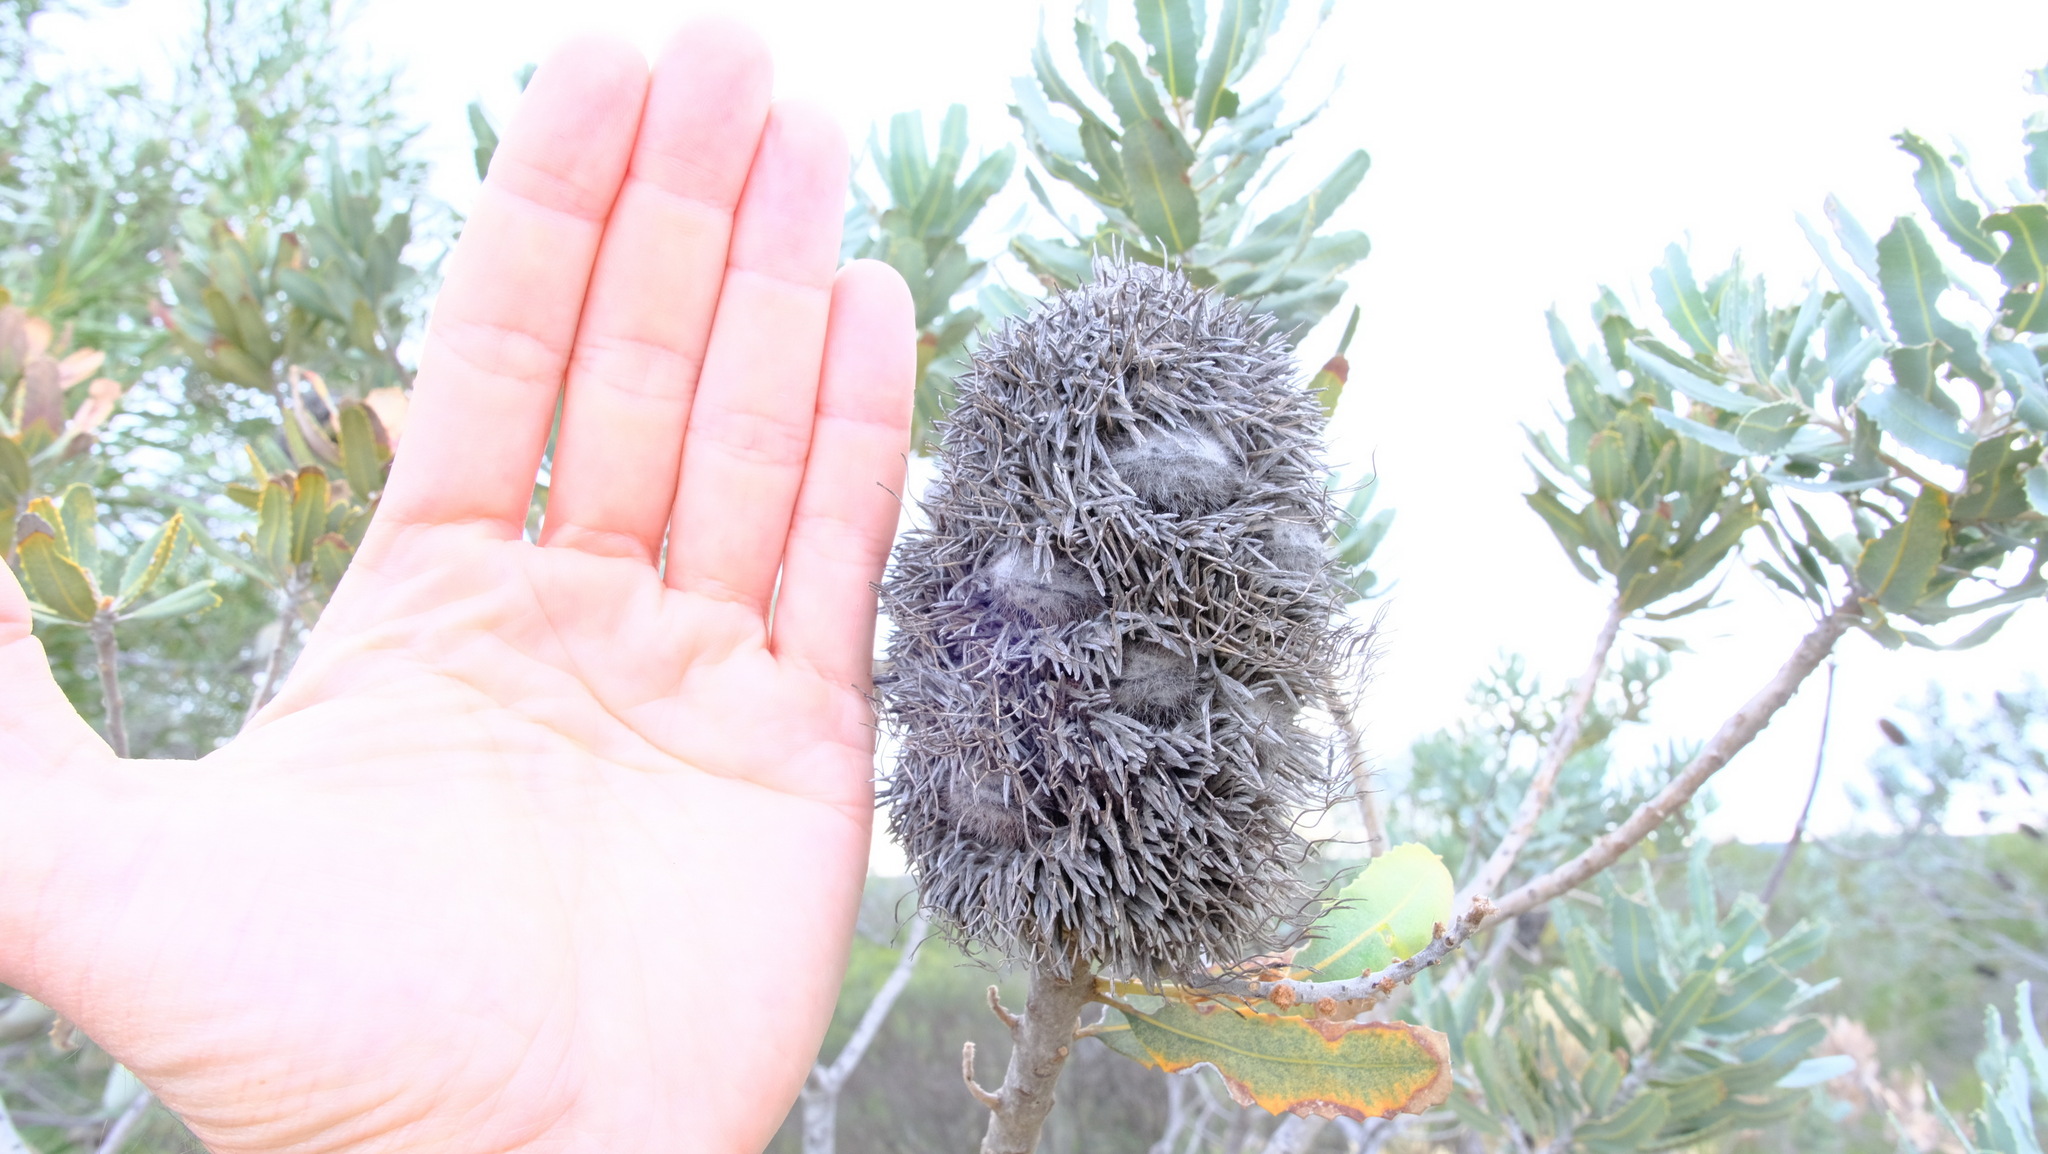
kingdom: Plantae
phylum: Tracheophyta
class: Magnoliopsida
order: Proteales
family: Proteaceae
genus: Banksia
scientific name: Banksia sceptrum
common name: Sceptre banksia
